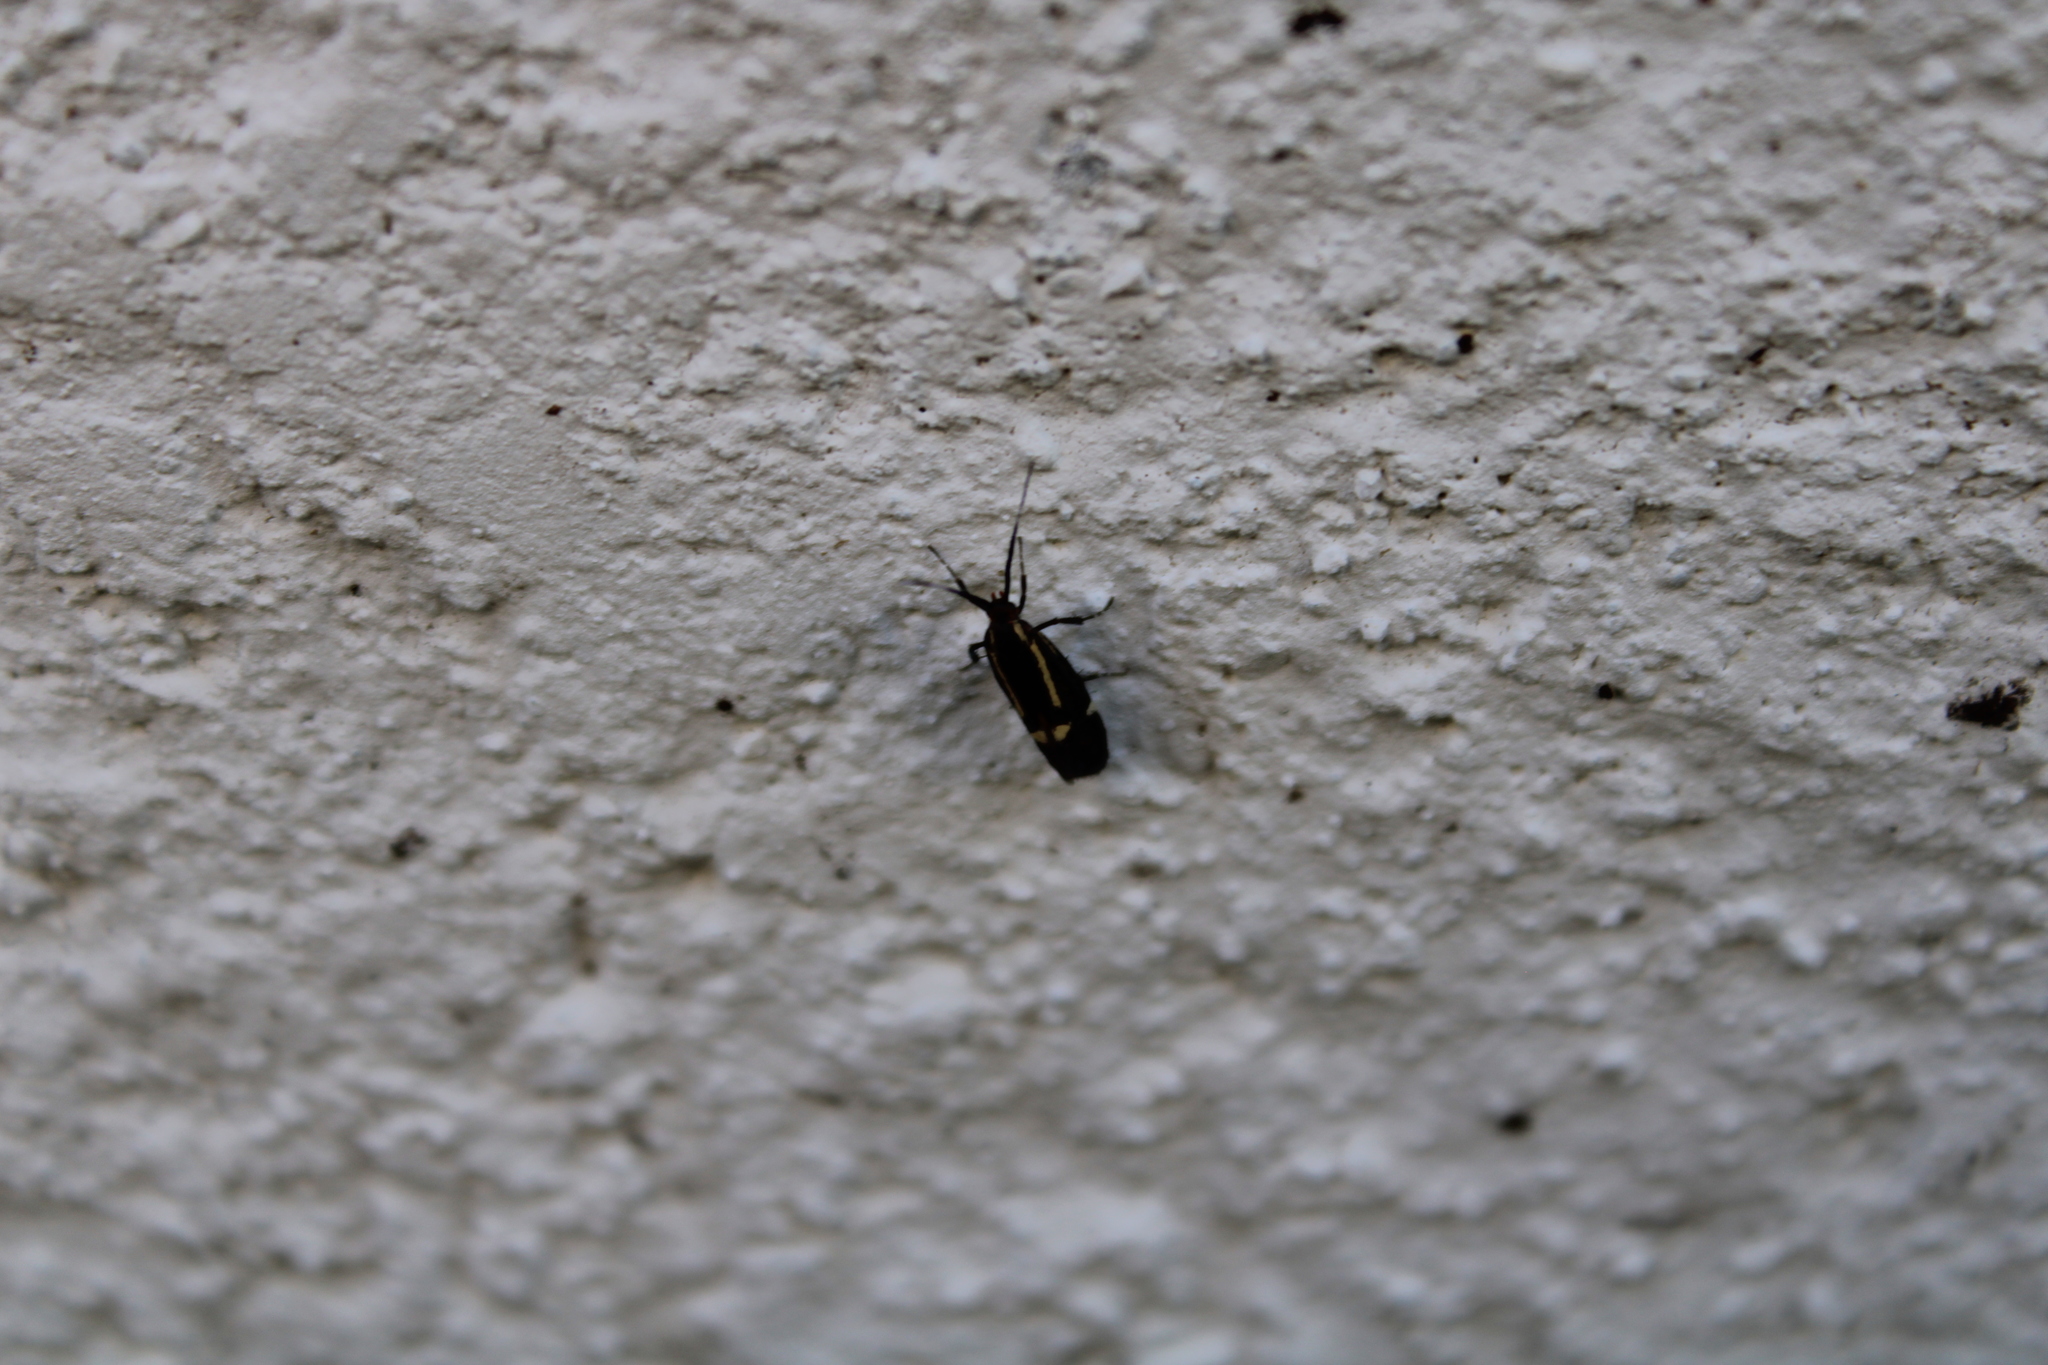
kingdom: Animalia
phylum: Arthropoda
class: Insecta
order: Lepidoptera
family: Oecophoridae
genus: Dafa
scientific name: Dafa Esperia sulphurella
